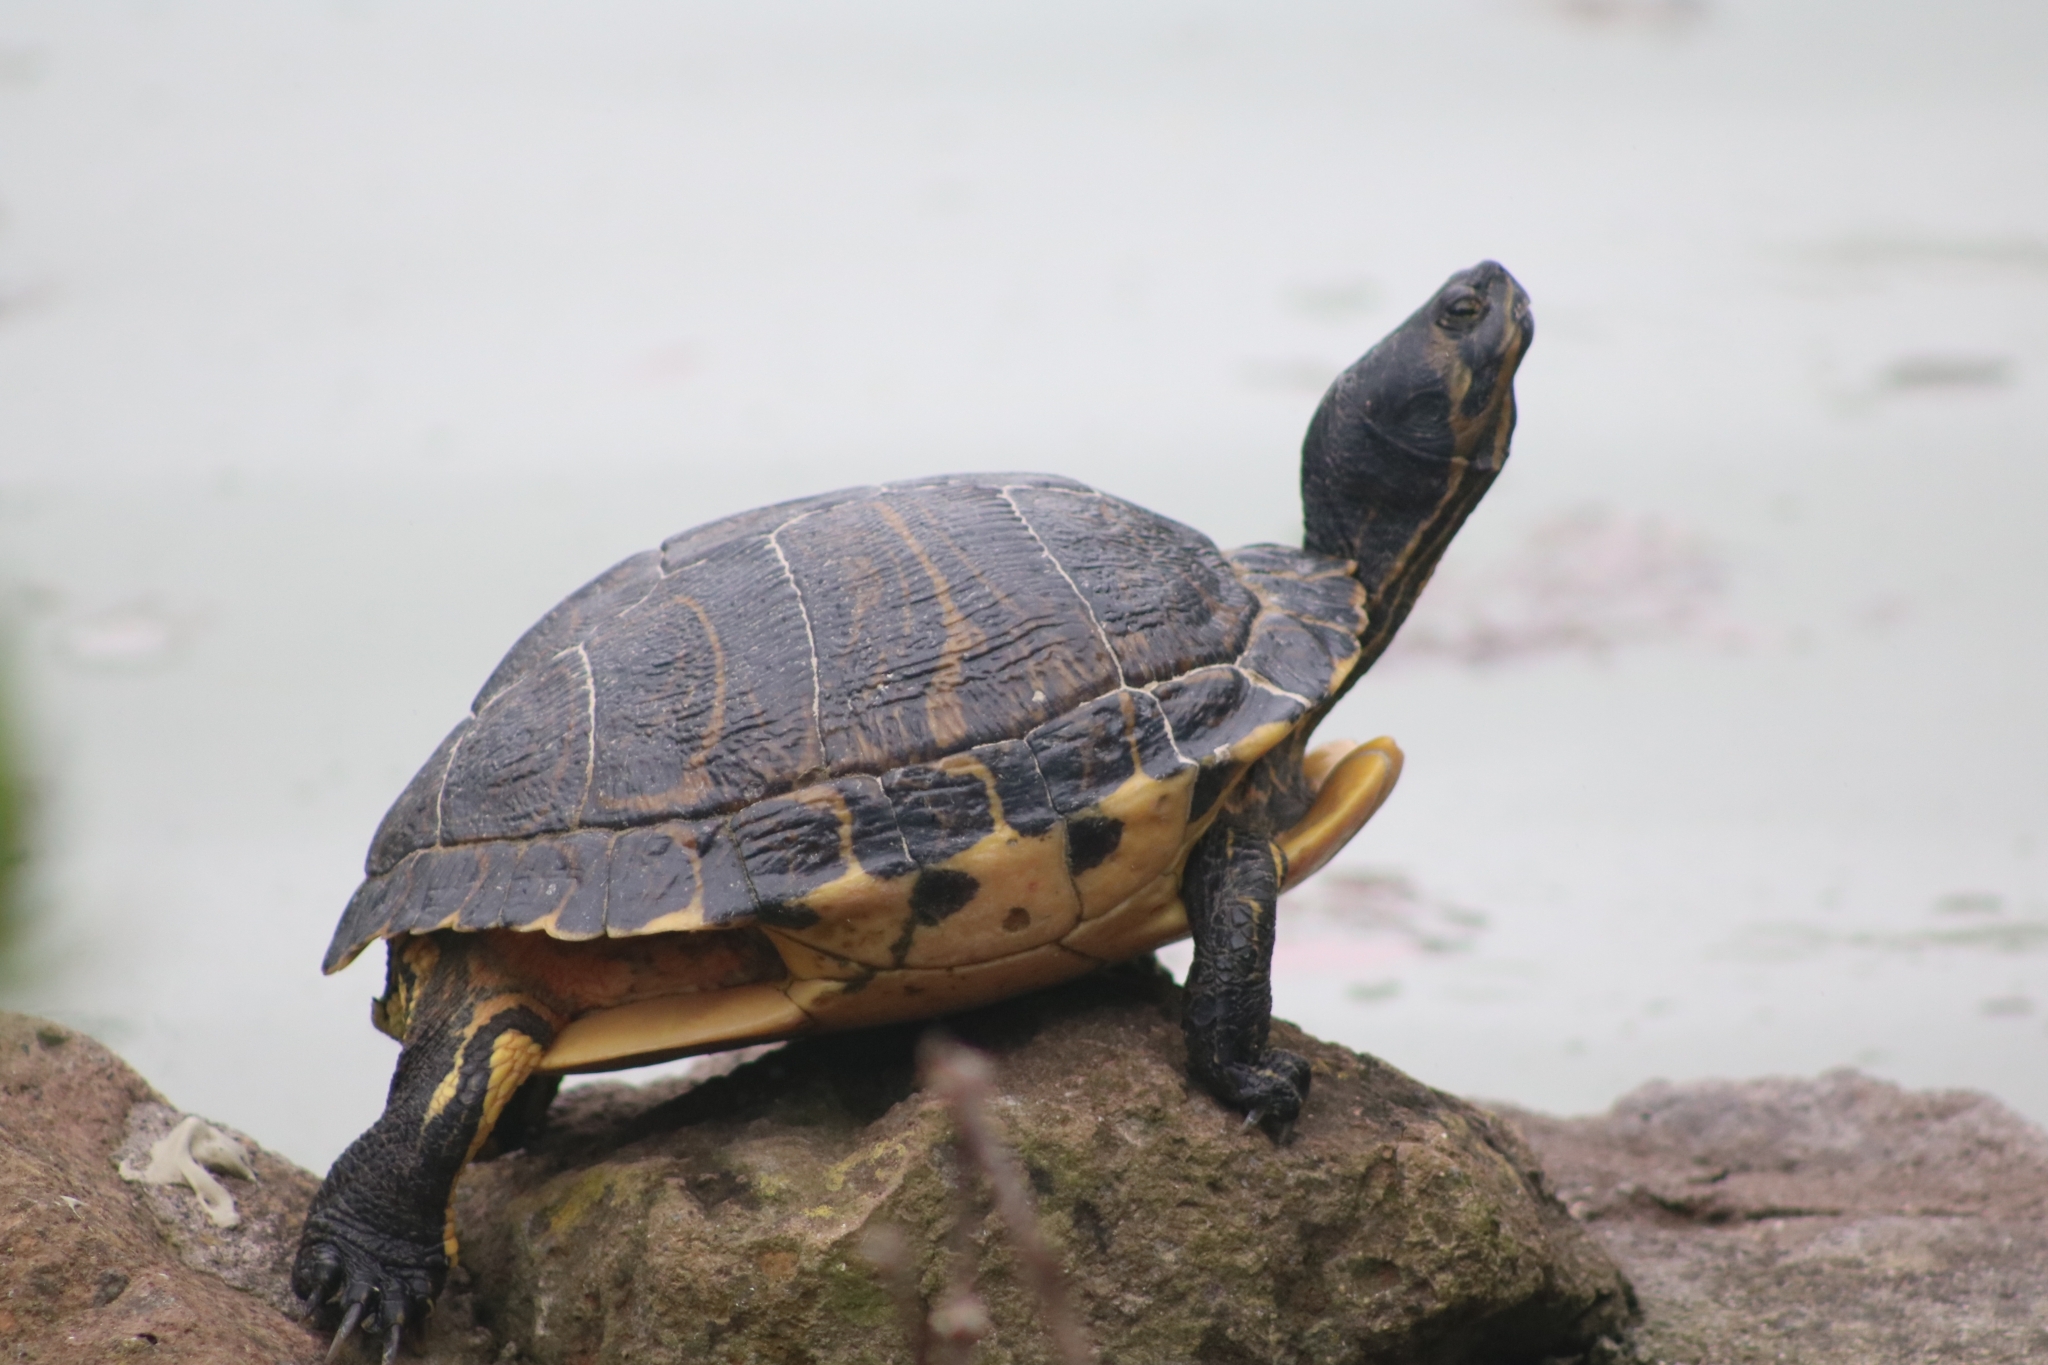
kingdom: Animalia
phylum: Chordata
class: Testudines
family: Emydidae
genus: Trachemys
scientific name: Trachemys scripta
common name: Slider
